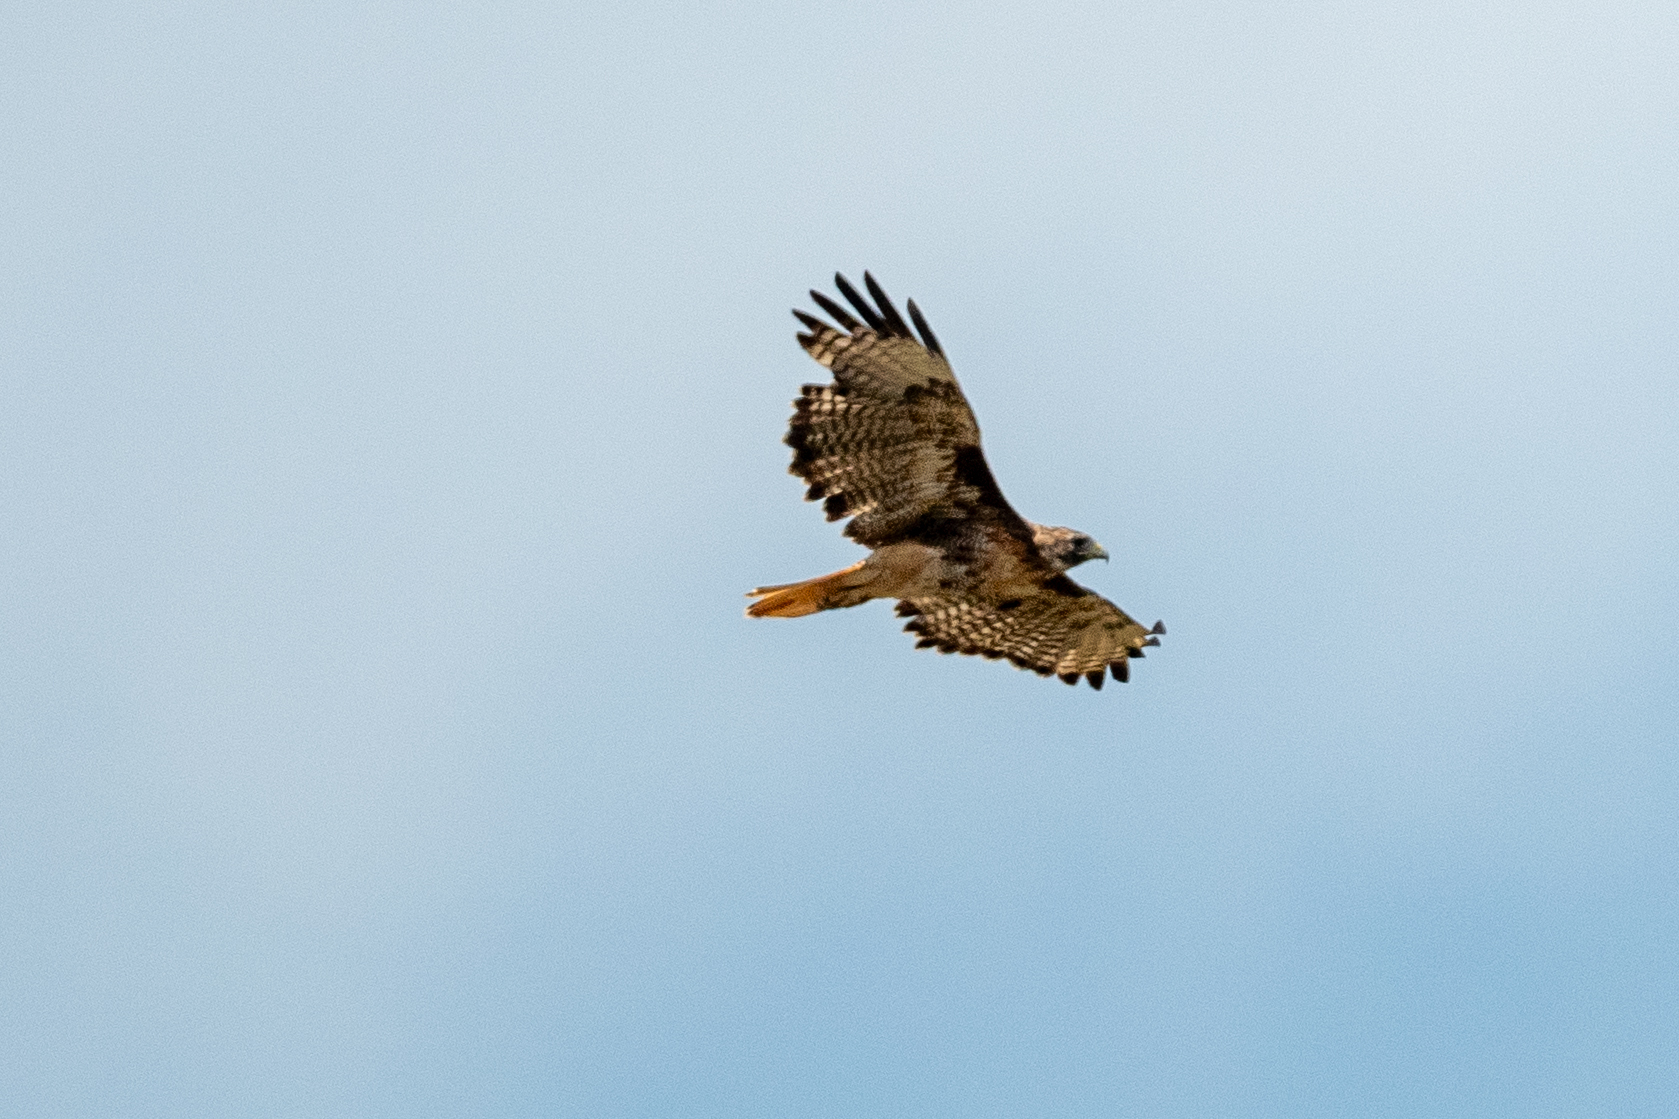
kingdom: Animalia
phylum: Chordata
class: Aves
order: Accipitriformes
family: Accipitridae
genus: Buteo
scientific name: Buteo jamaicensis
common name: Red-tailed hawk
